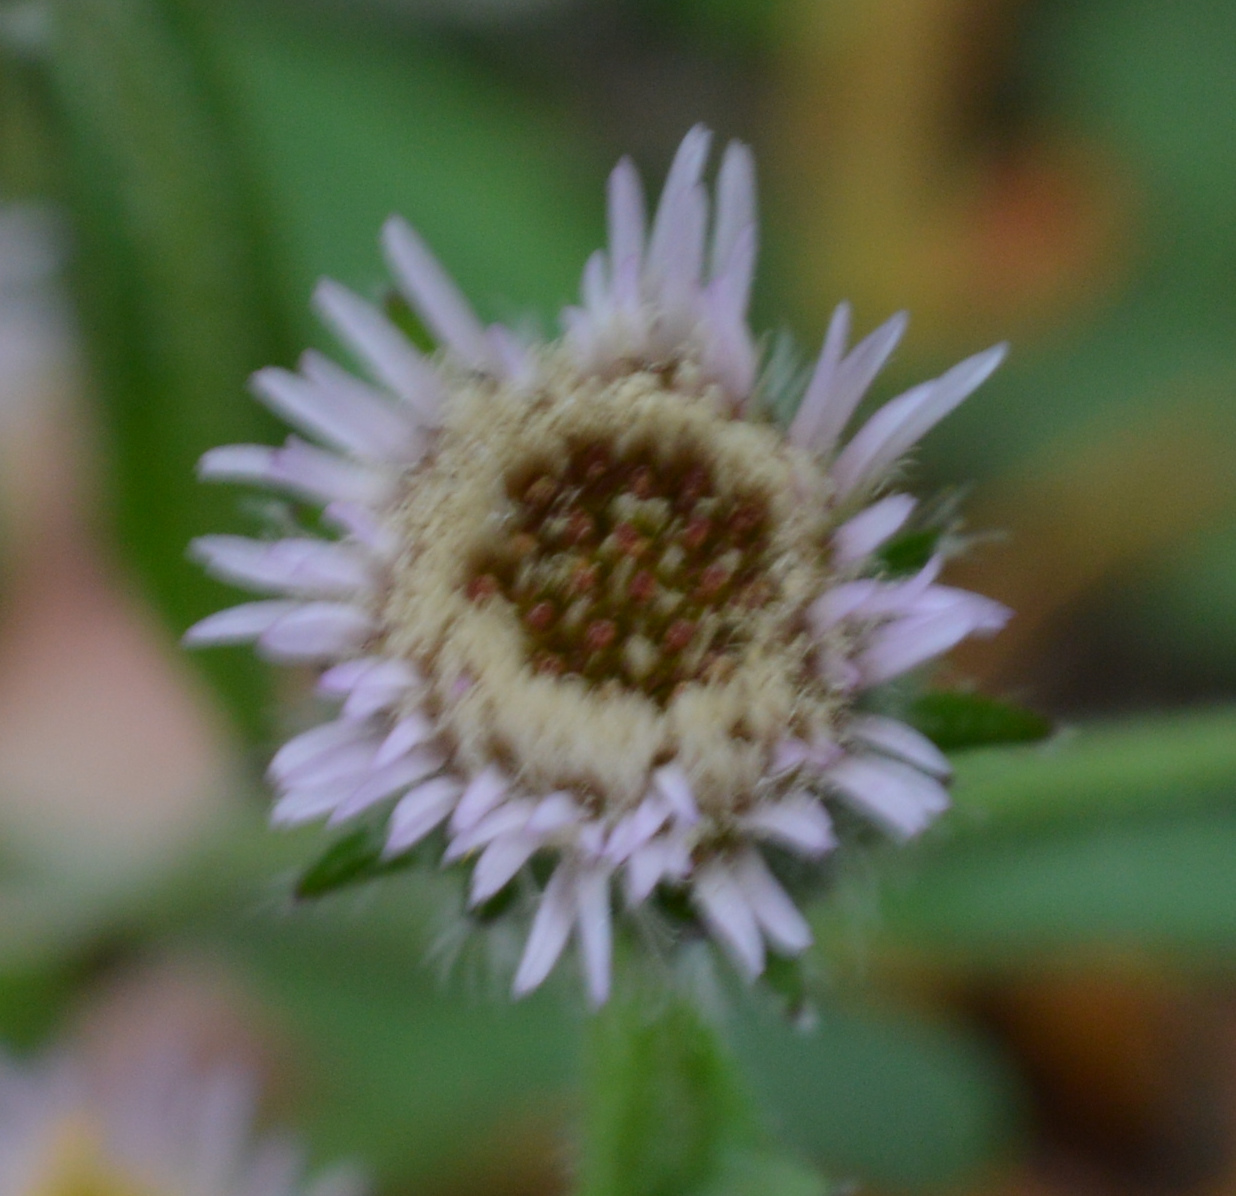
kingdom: Plantae
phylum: Tracheophyta
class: Magnoliopsida
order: Asterales
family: Asteraceae
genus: Erigeron
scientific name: Erigeron acris
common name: Blue fleabane
